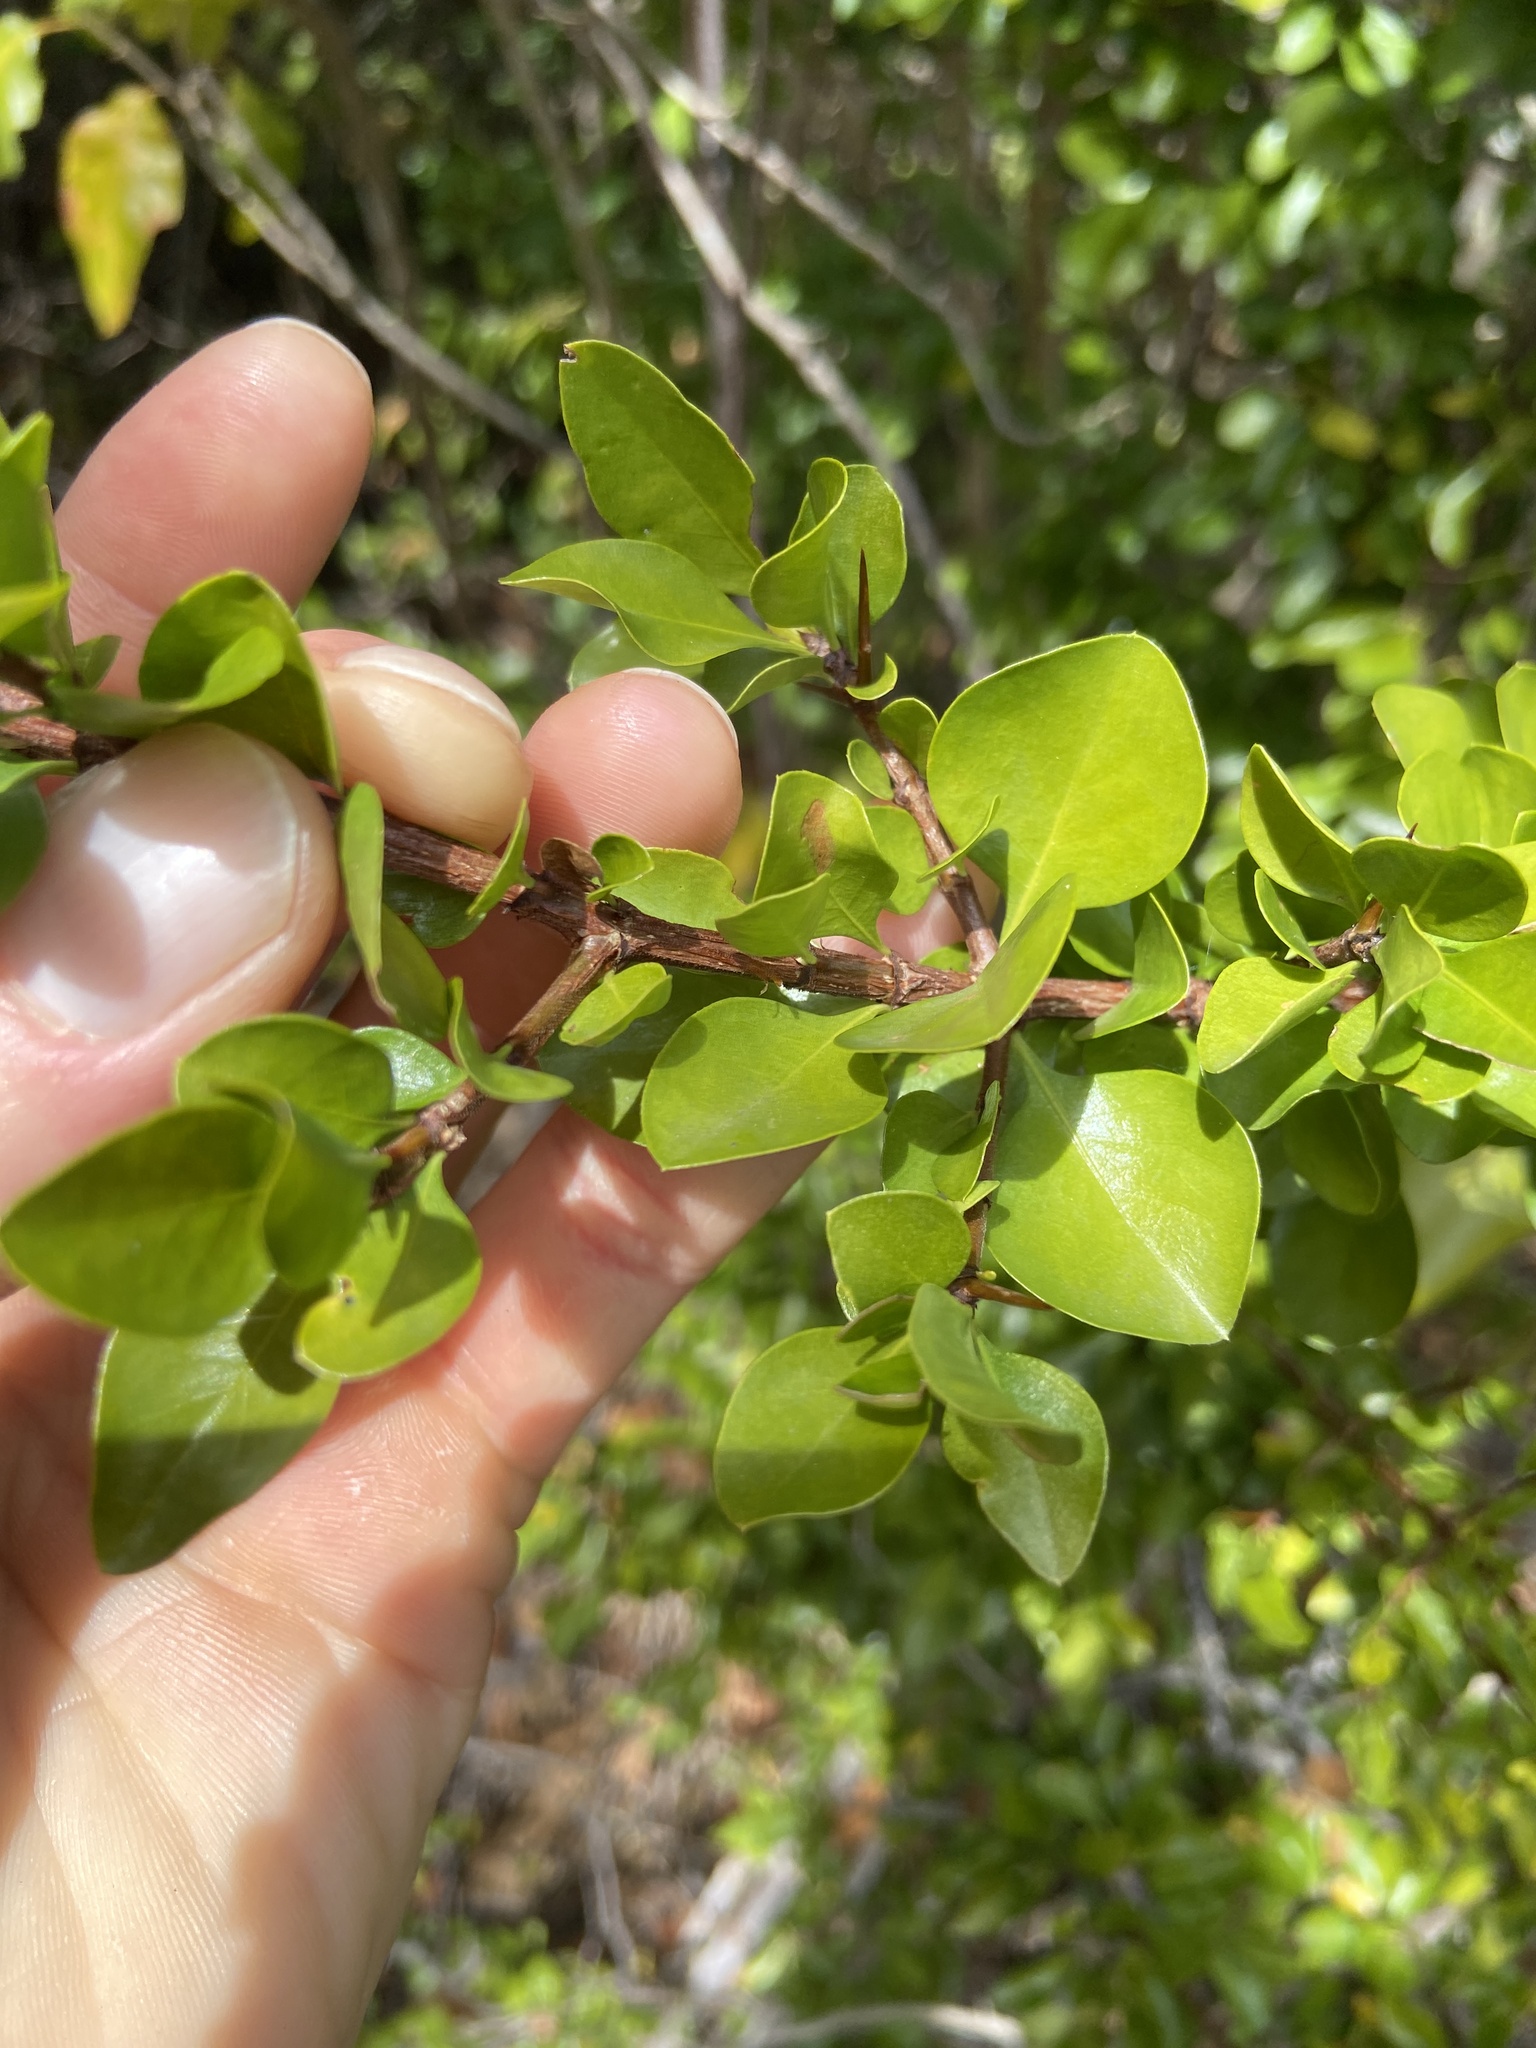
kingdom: Plantae
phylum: Tracheophyta
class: Magnoliopsida
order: Gentianales
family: Rubiaceae
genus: Randia
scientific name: Randia aculeata
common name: Inkberry
